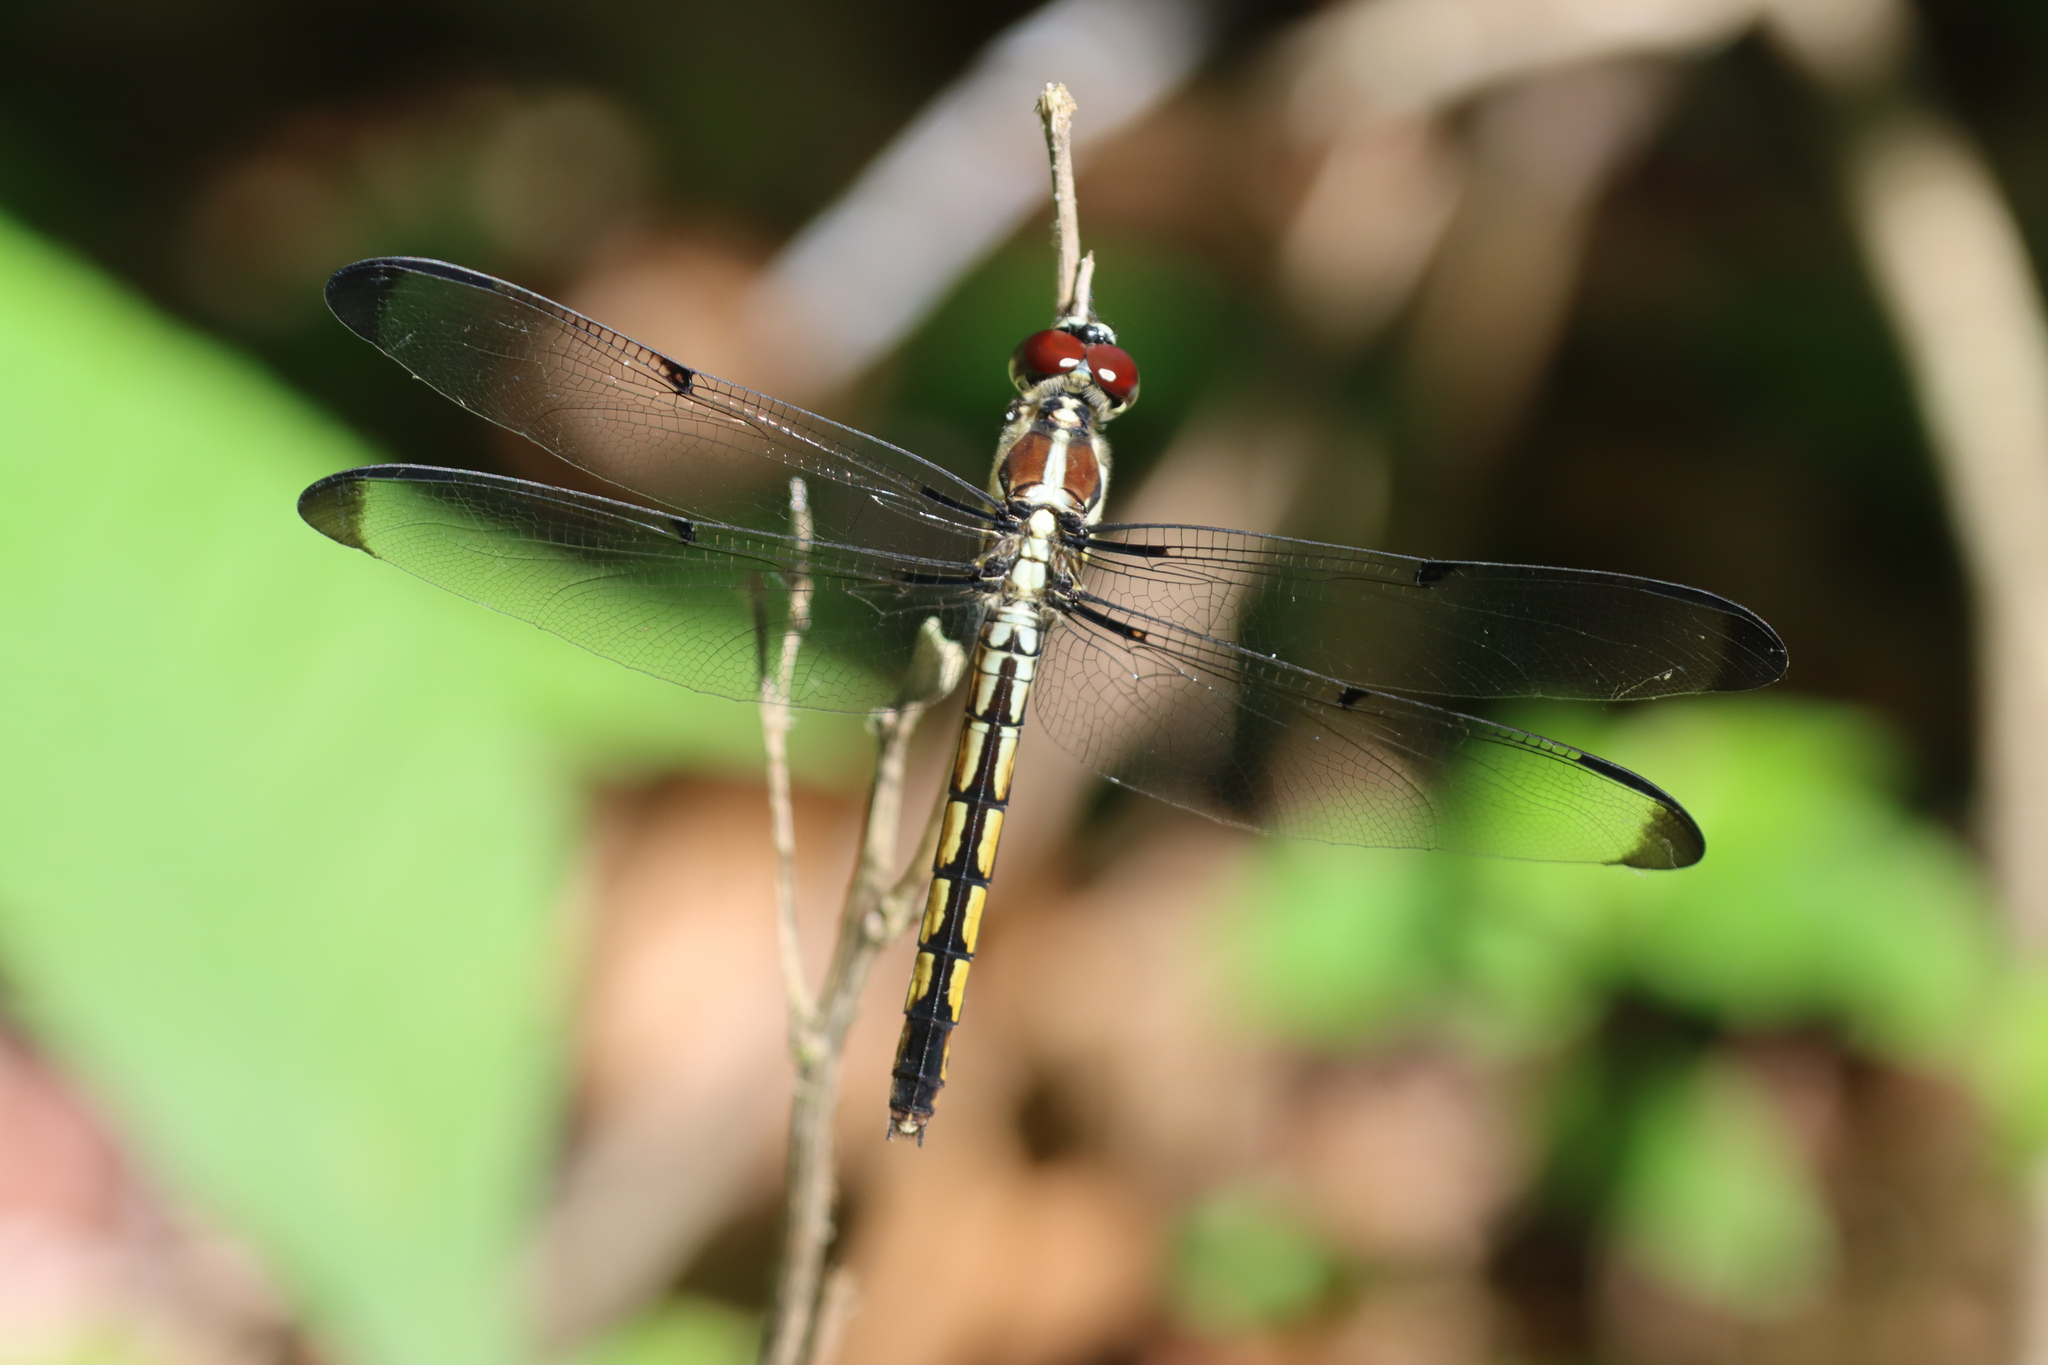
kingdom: Animalia
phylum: Arthropoda
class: Insecta
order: Odonata
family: Libellulidae
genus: Libellula
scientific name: Libellula vibrans
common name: Great blue skimmer
